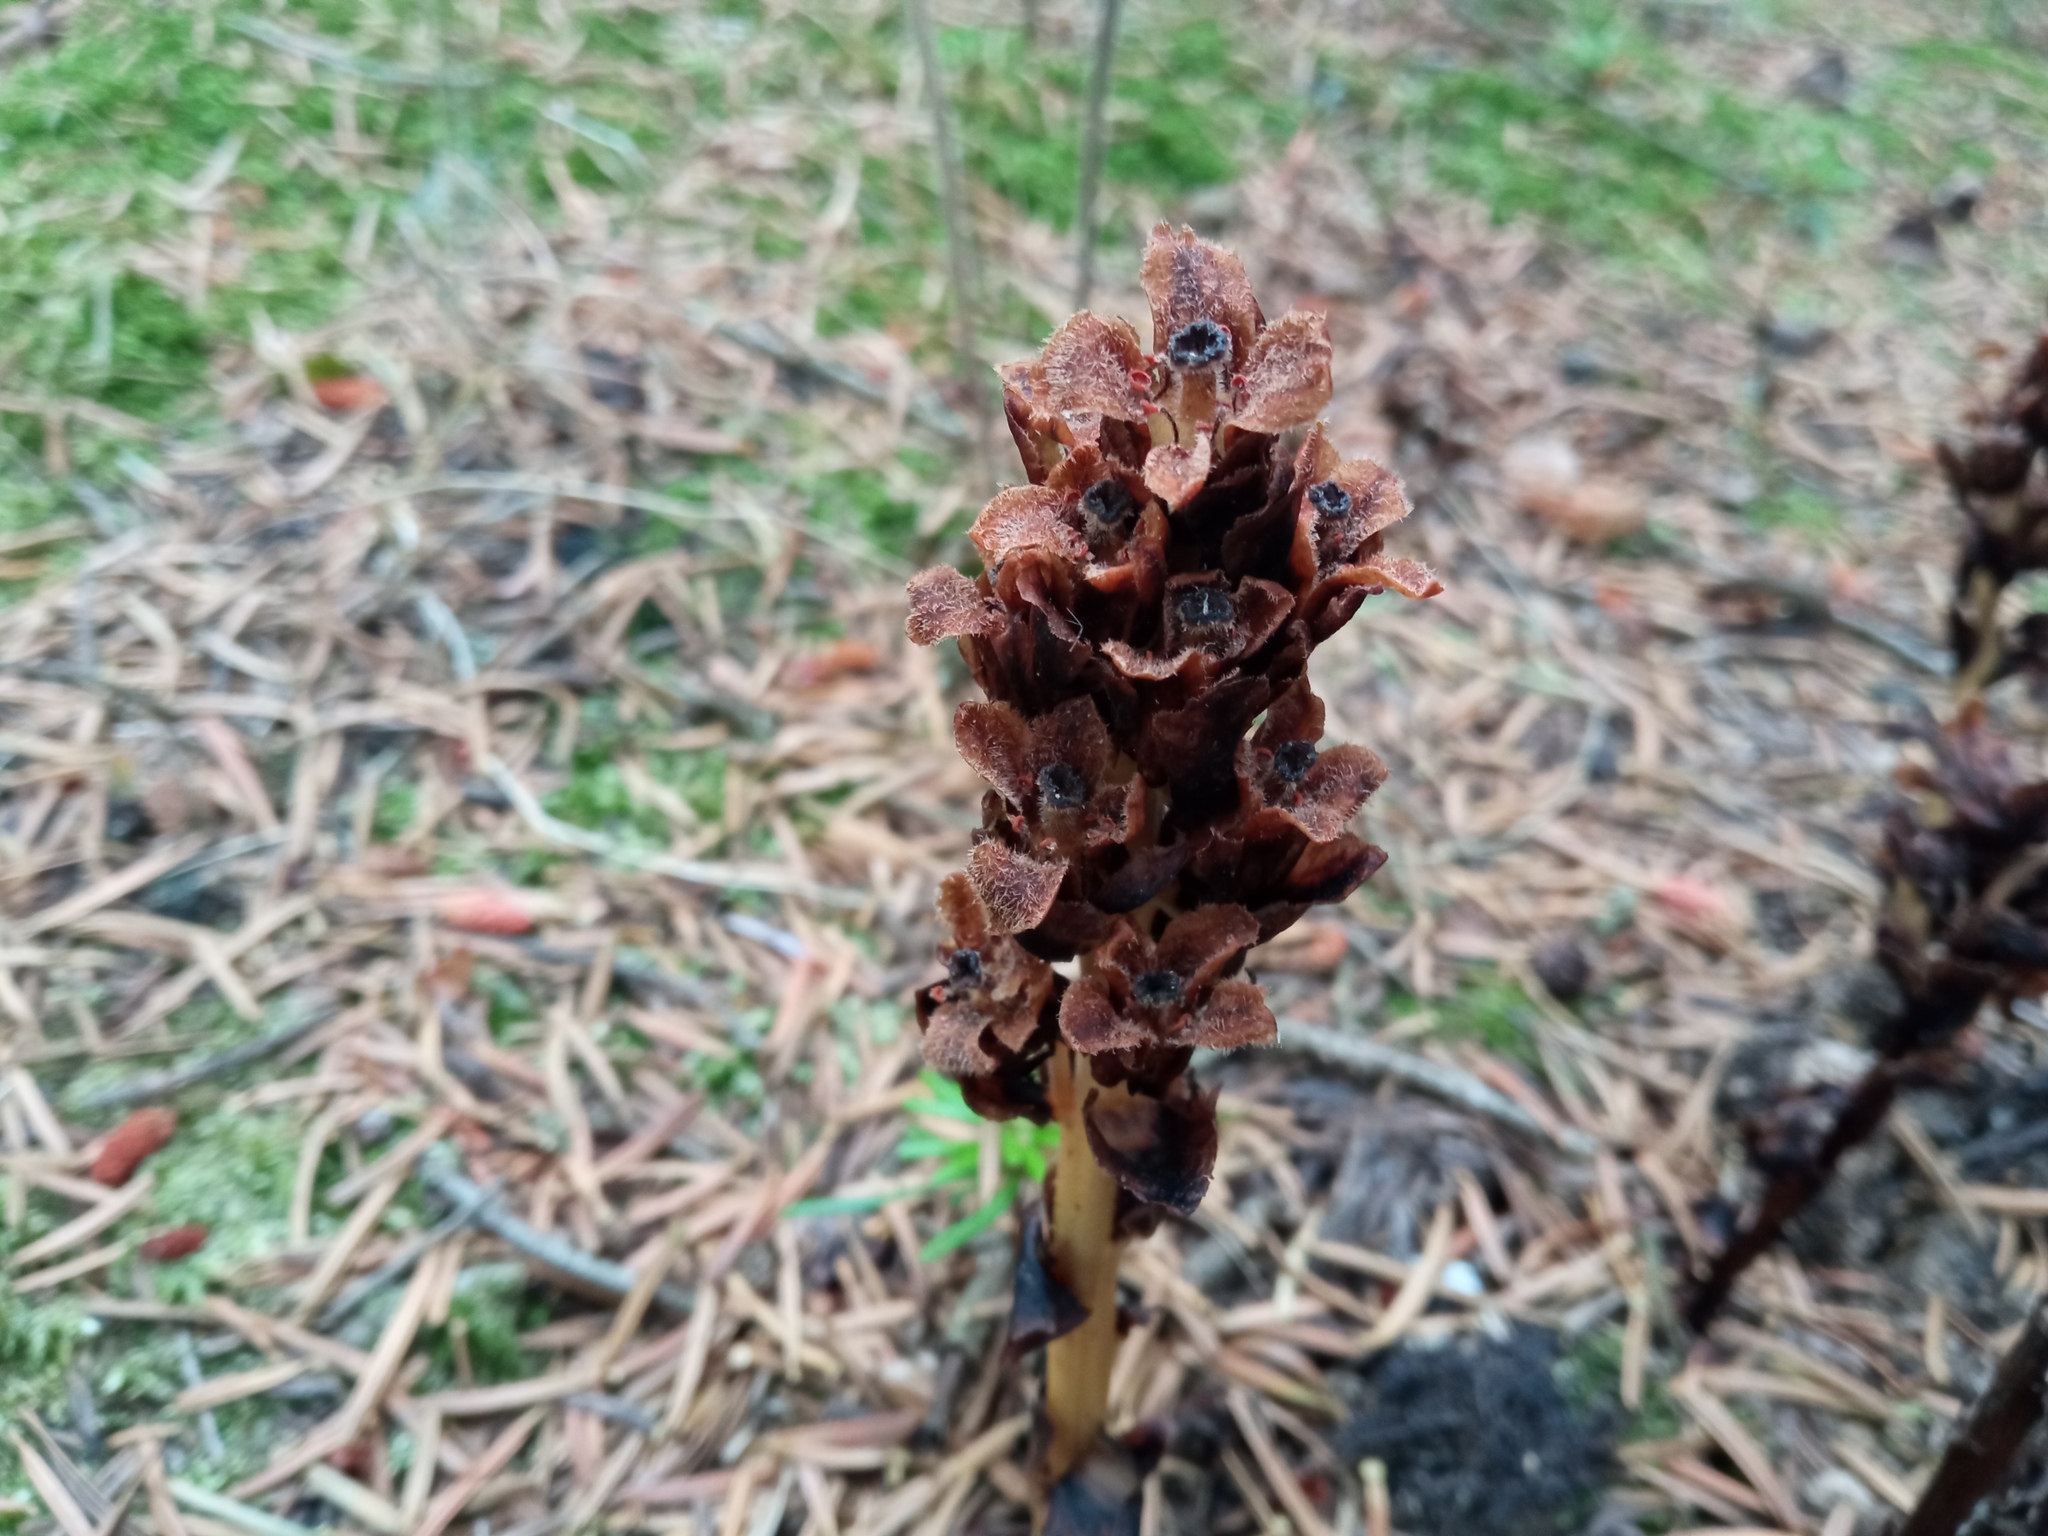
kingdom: Plantae
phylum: Tracheophyta
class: Magnoliopsida
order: Ericales
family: Ericaceae
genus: Hypopitys
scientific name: Hypopitys monotropa
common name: Yellow bird's-nest
